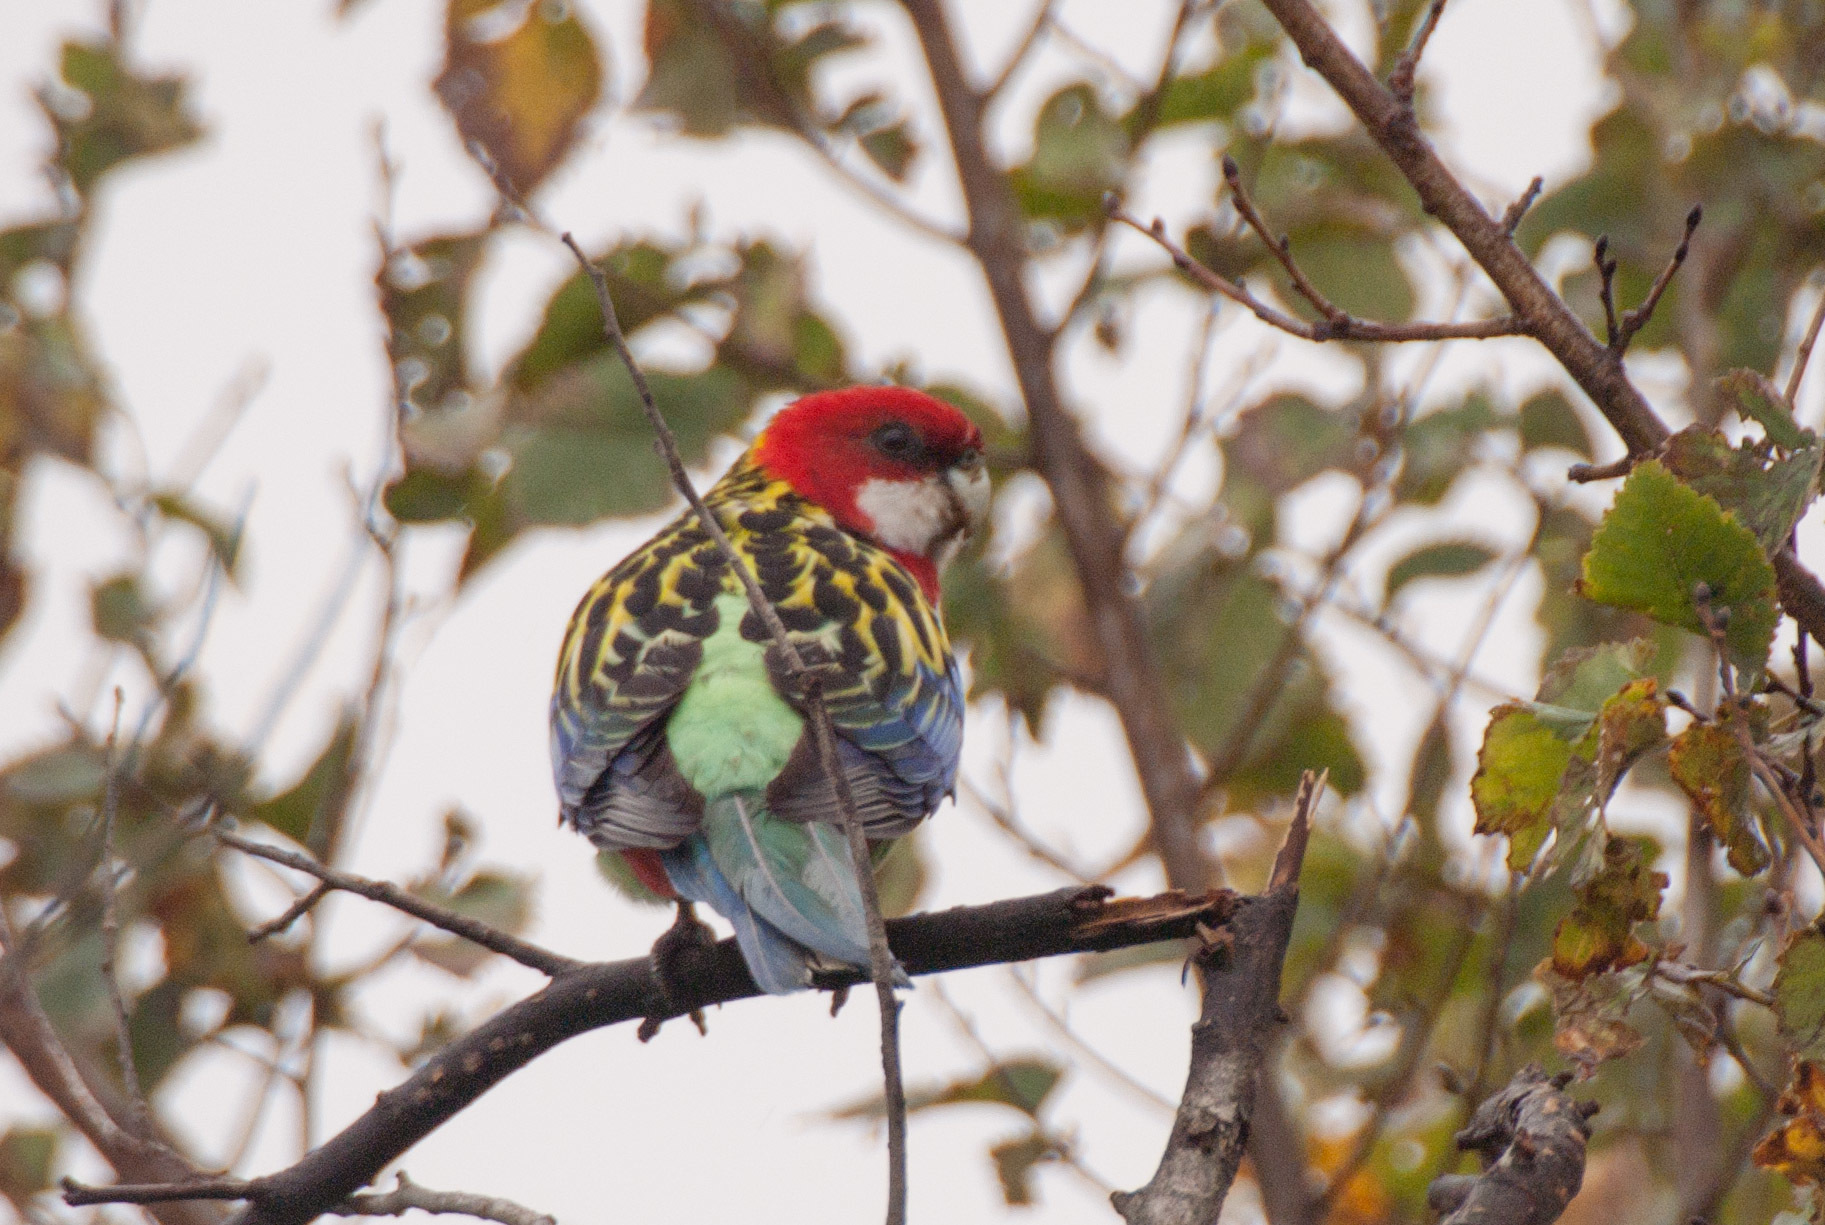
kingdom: Animalia
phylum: Chordata
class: Aves
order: Psittaciformes
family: Psittacidae
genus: Platycercus
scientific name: Platycercus eximius
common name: Eastern rosella
